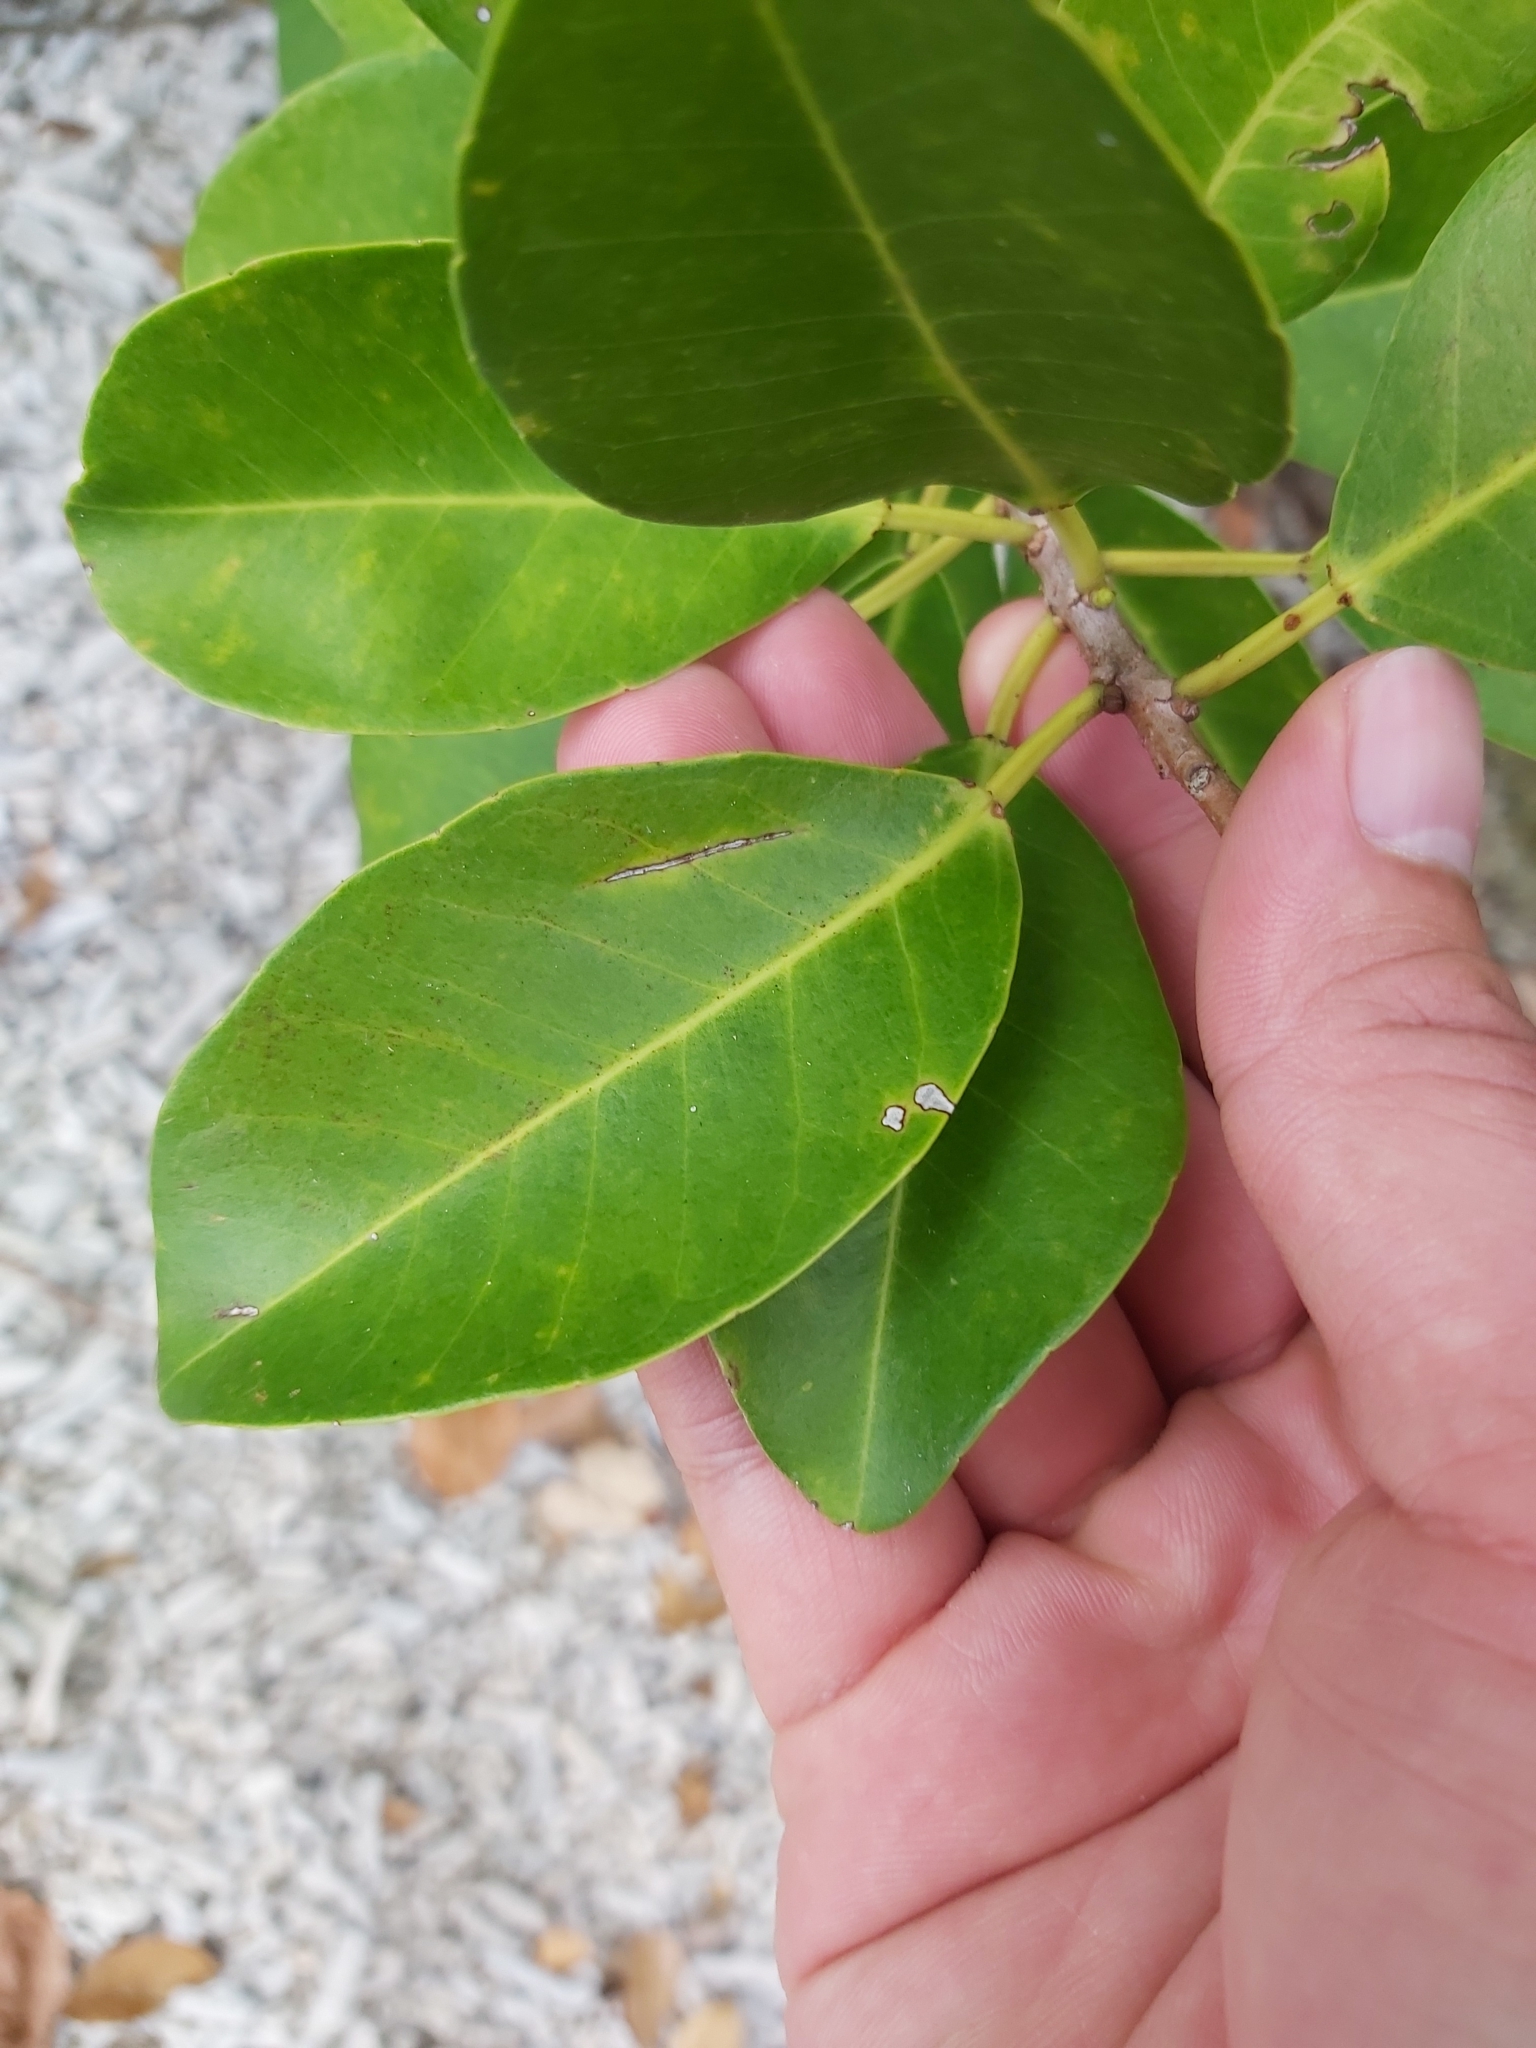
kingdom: Plantae
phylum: Tracheophyta
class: Magnoliopsida
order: Malpighiales
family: Euphorbiaceae
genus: Excoecaria
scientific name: Excoecaria agallocha
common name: River poisontree
